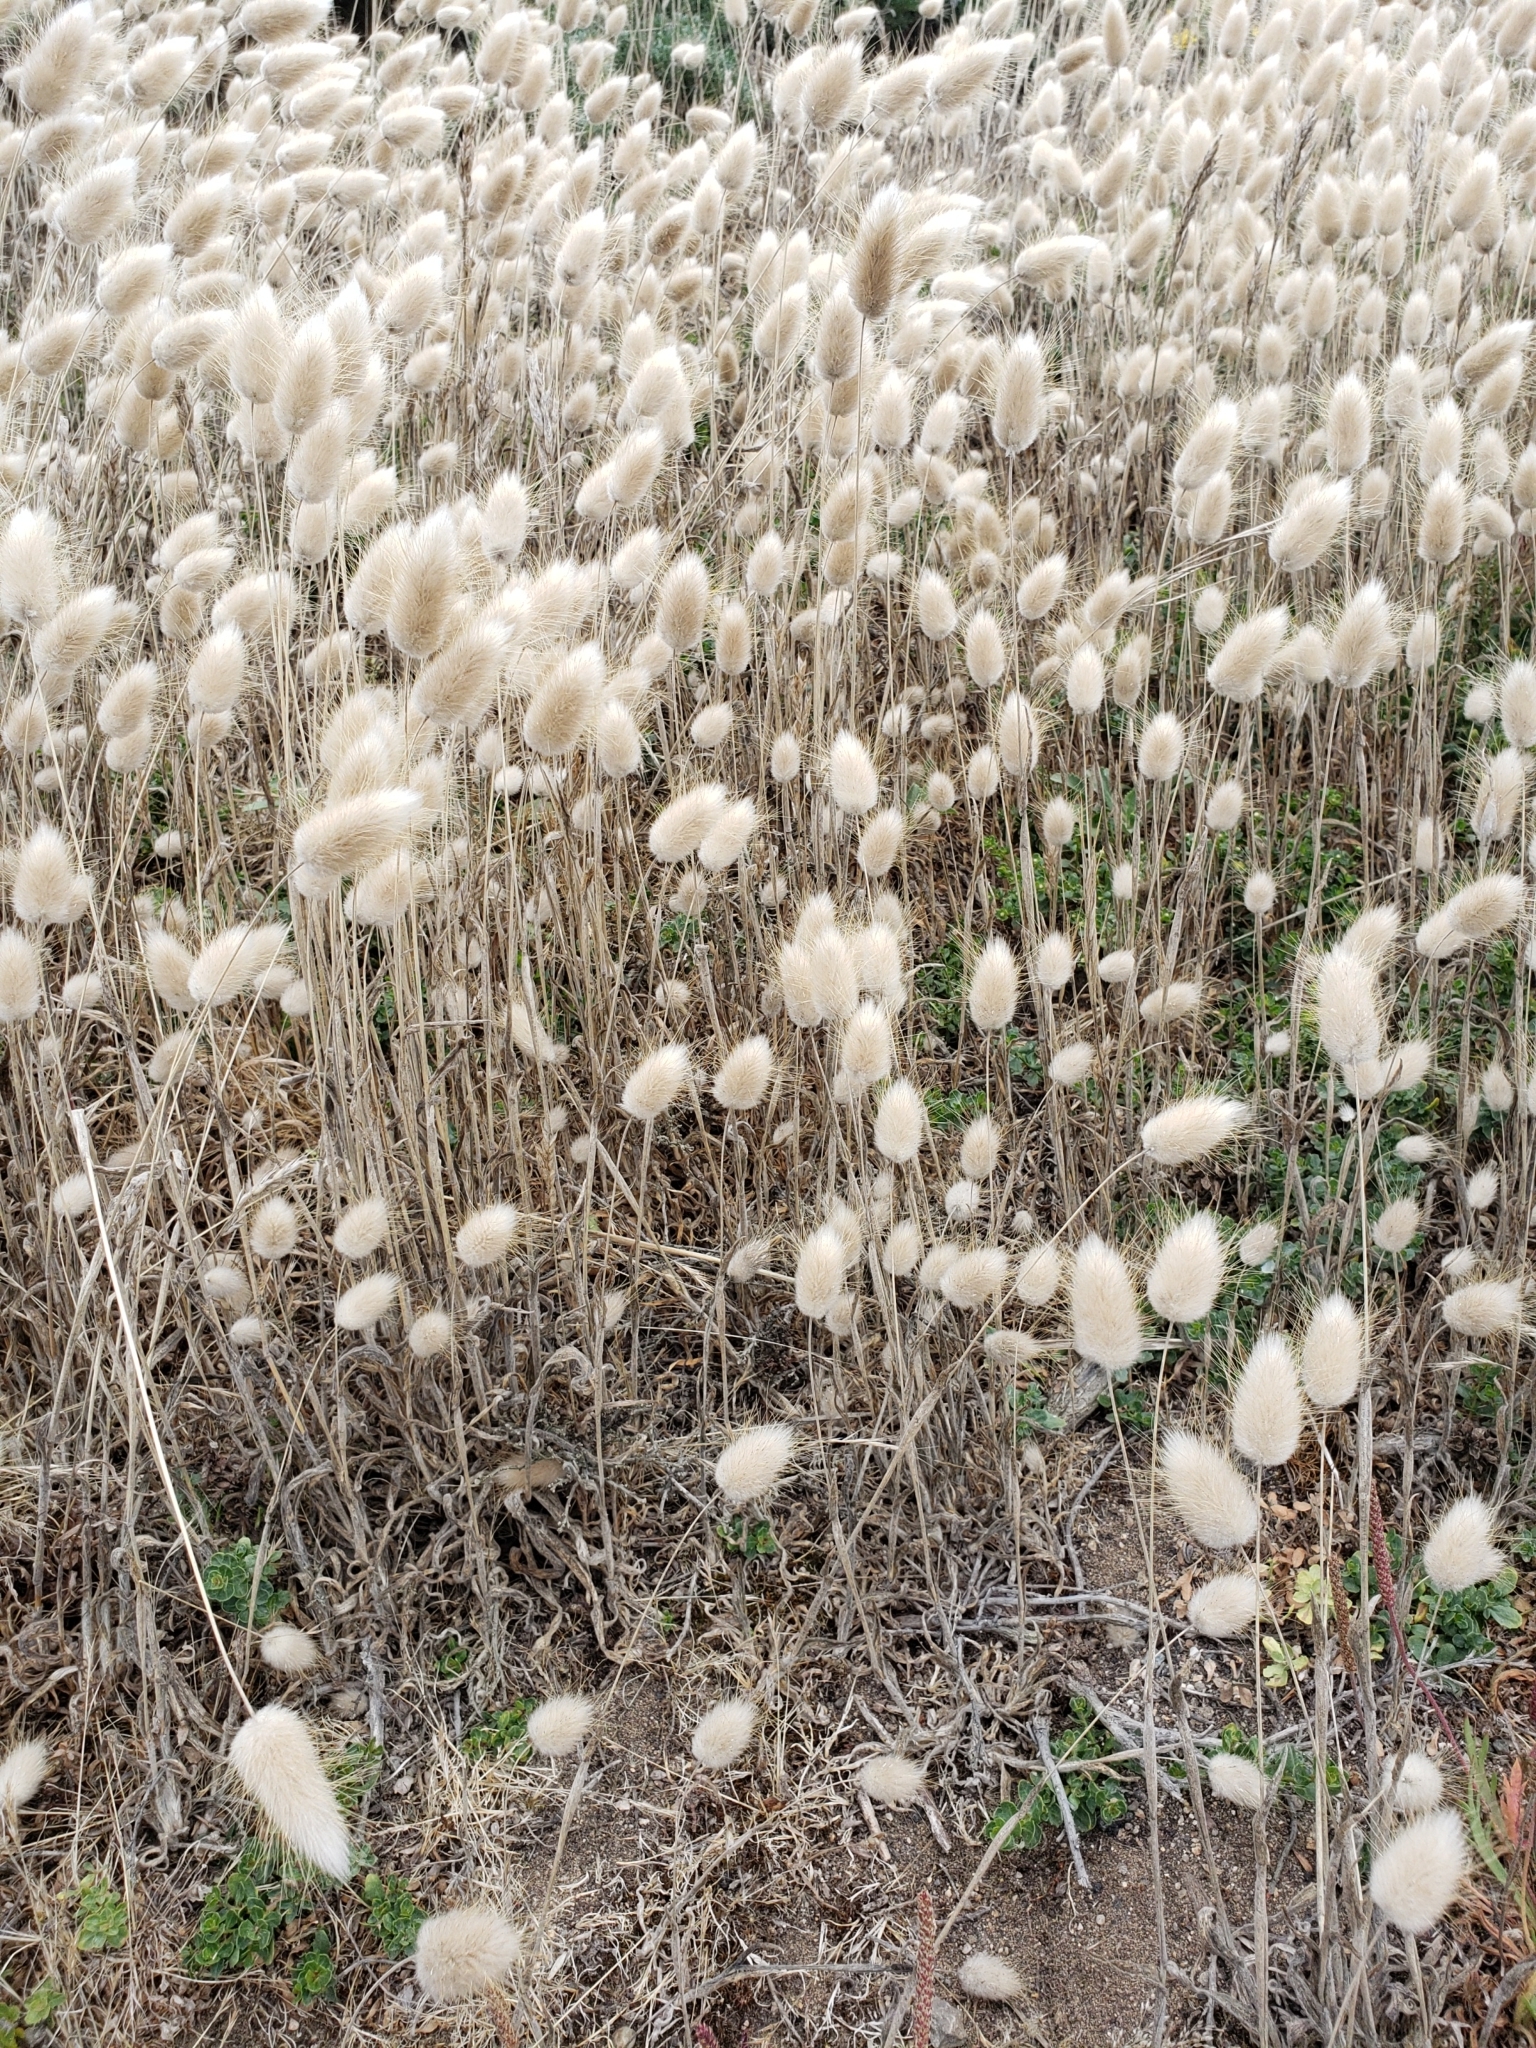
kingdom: Plantae
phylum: Tracheophyta
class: Liliopsida
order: Poales
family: Poaceae
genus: Lagurus
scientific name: Lagurus ovatus
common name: Hare's-tail
